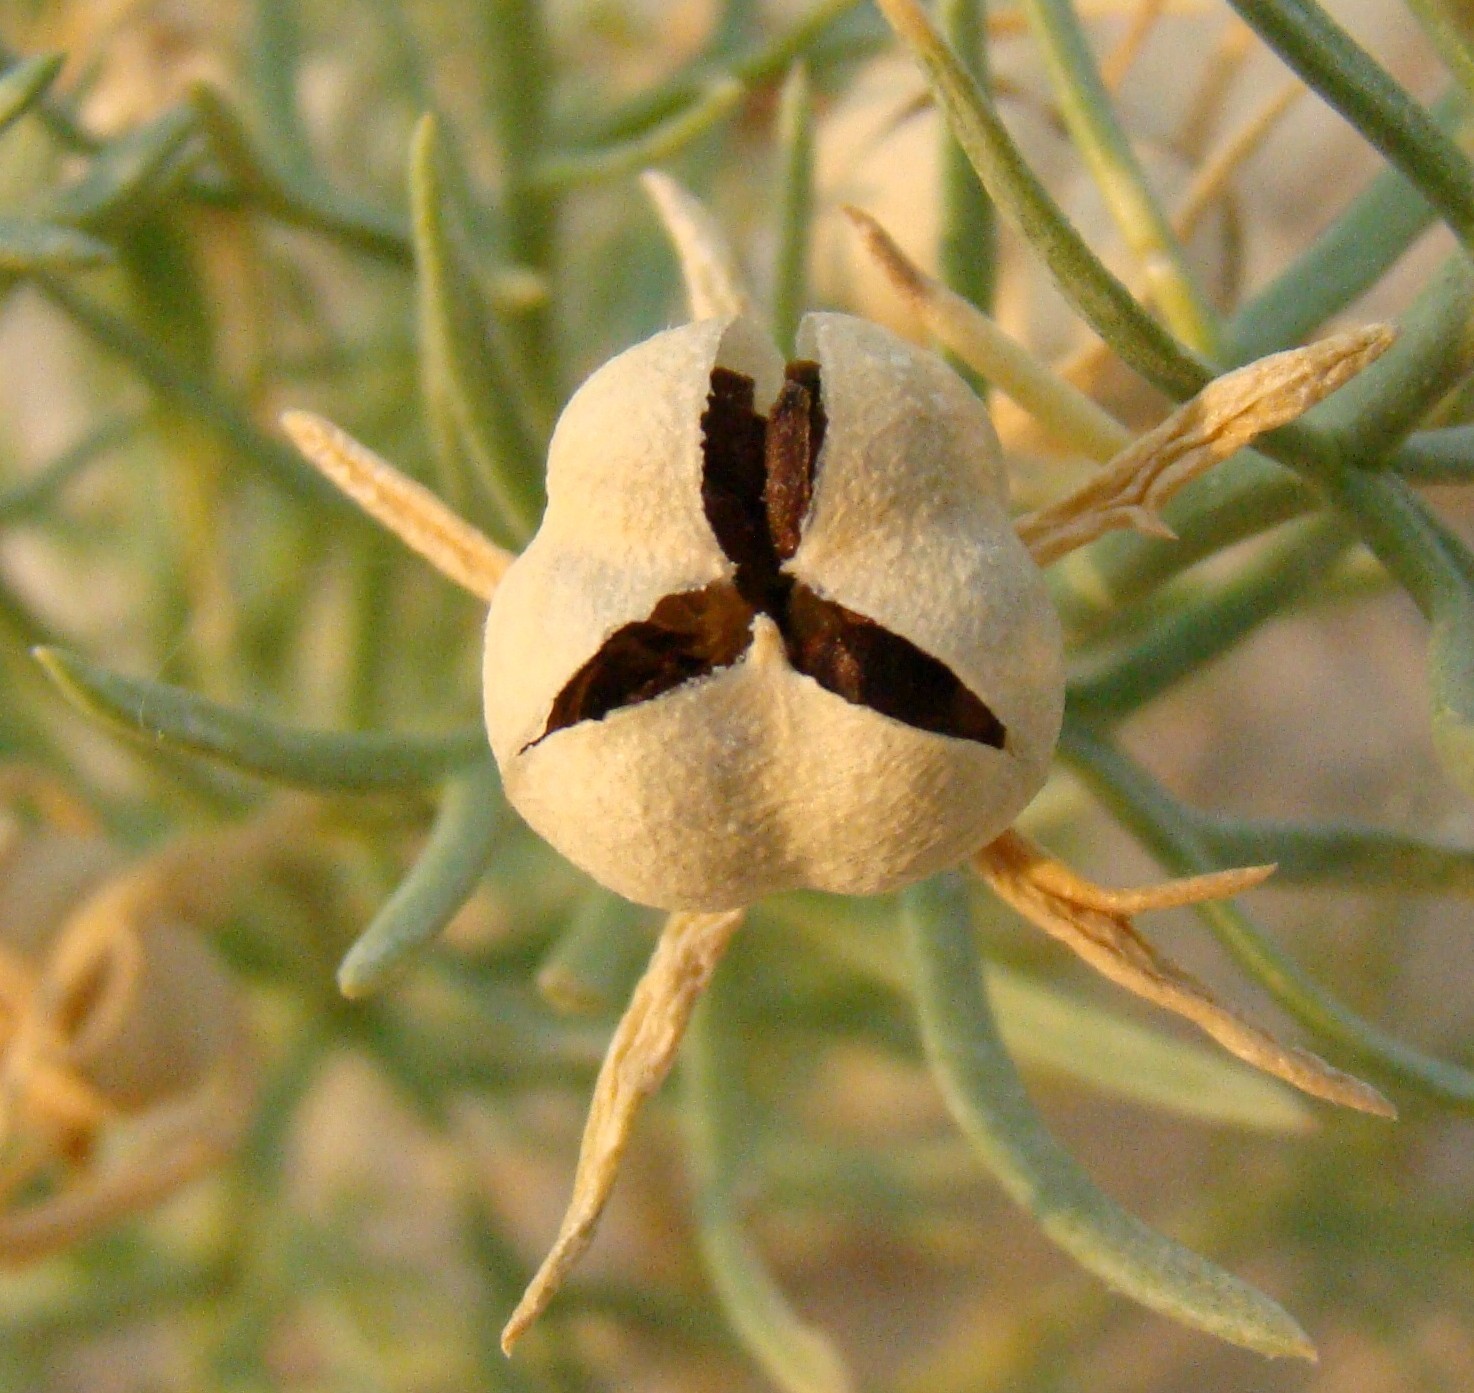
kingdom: Plantae
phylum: Tracheophyta
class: Magnoliopsida
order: Sapindales
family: Tetradiclidaceae
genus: Peganum
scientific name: Peganum harmala
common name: Harmal peganum
